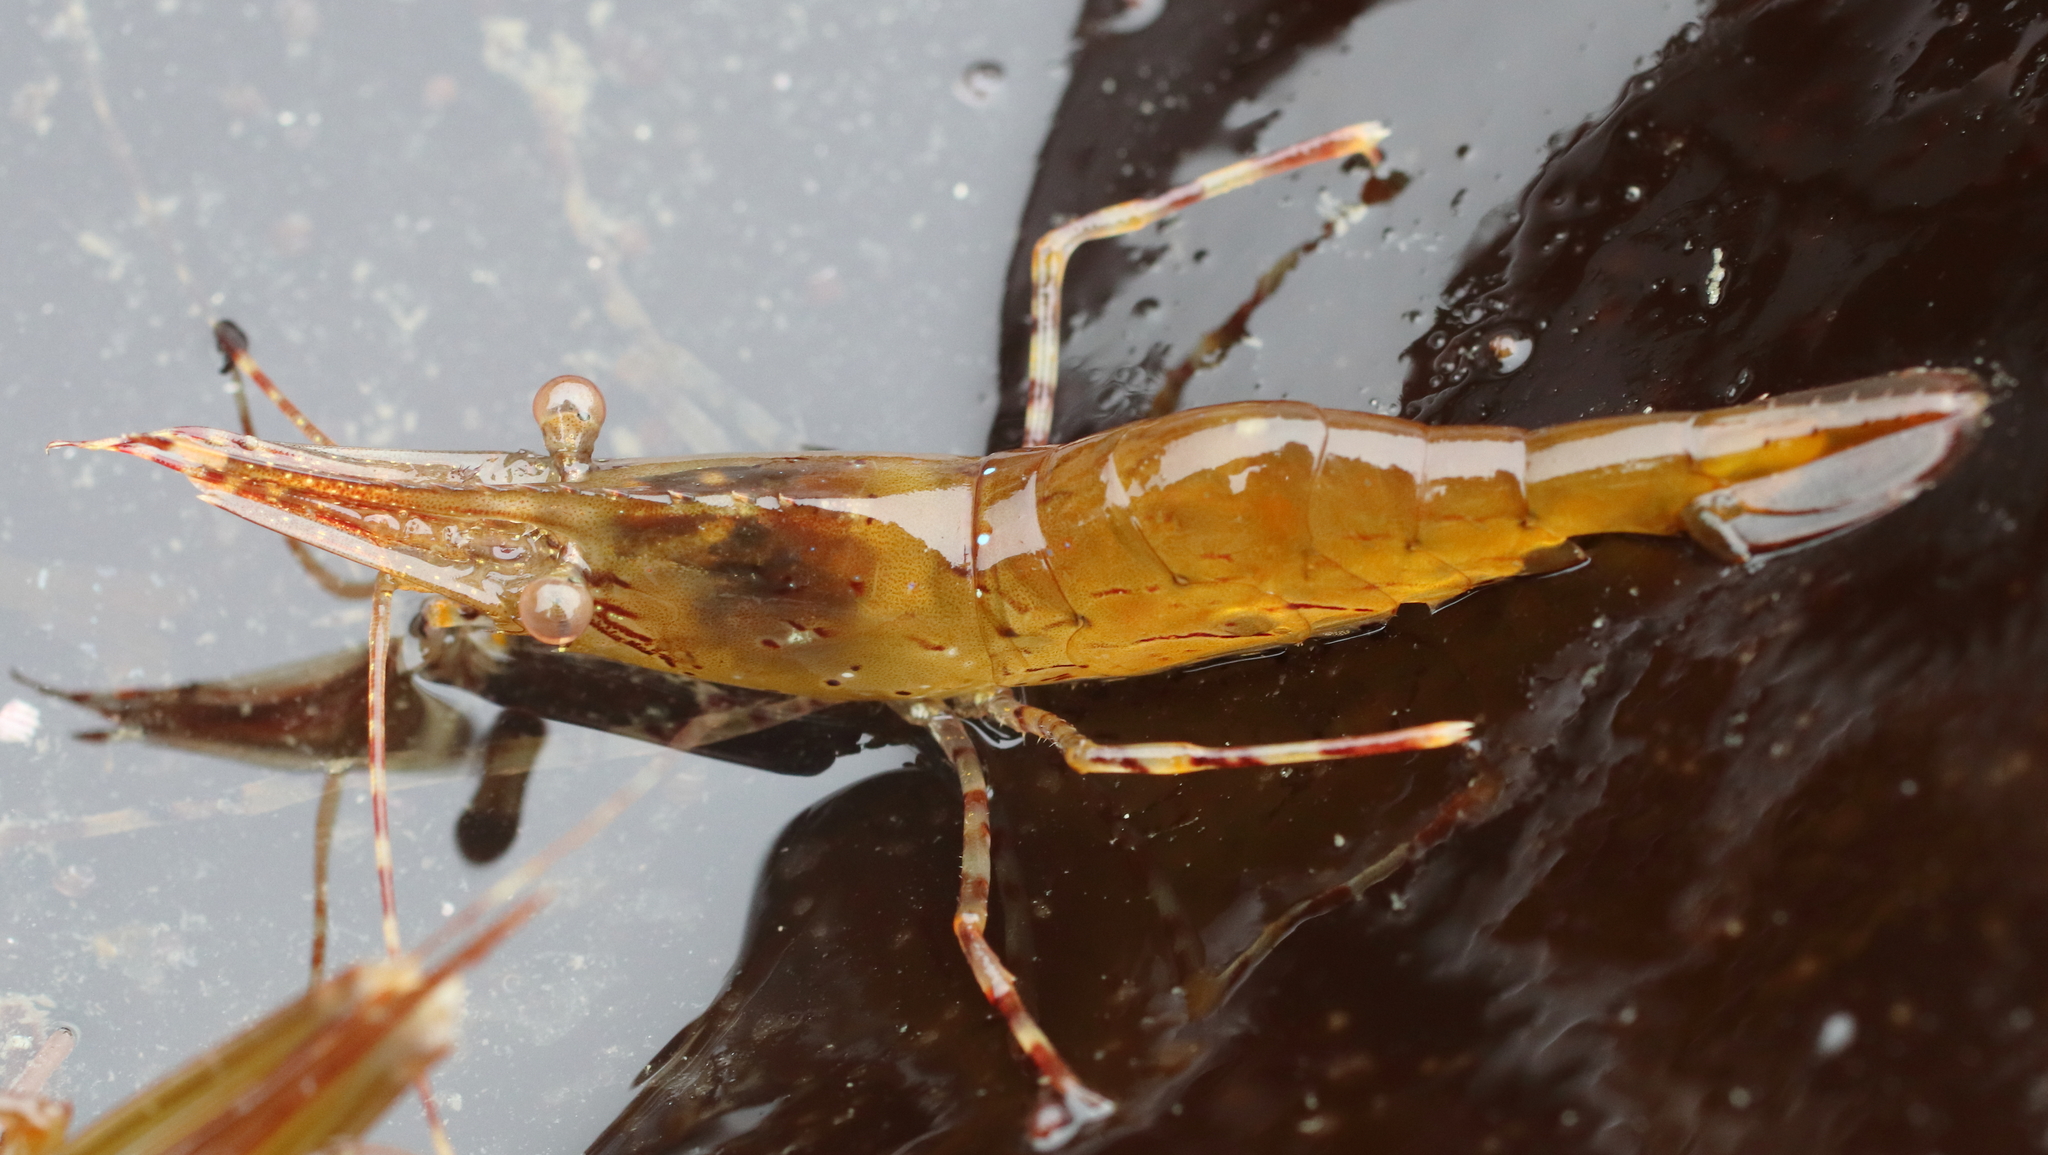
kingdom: Animalia
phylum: Arthropoda
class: Malacostraca
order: Decapoda
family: Pandalidae
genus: Pandalus
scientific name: Pandalus danae
